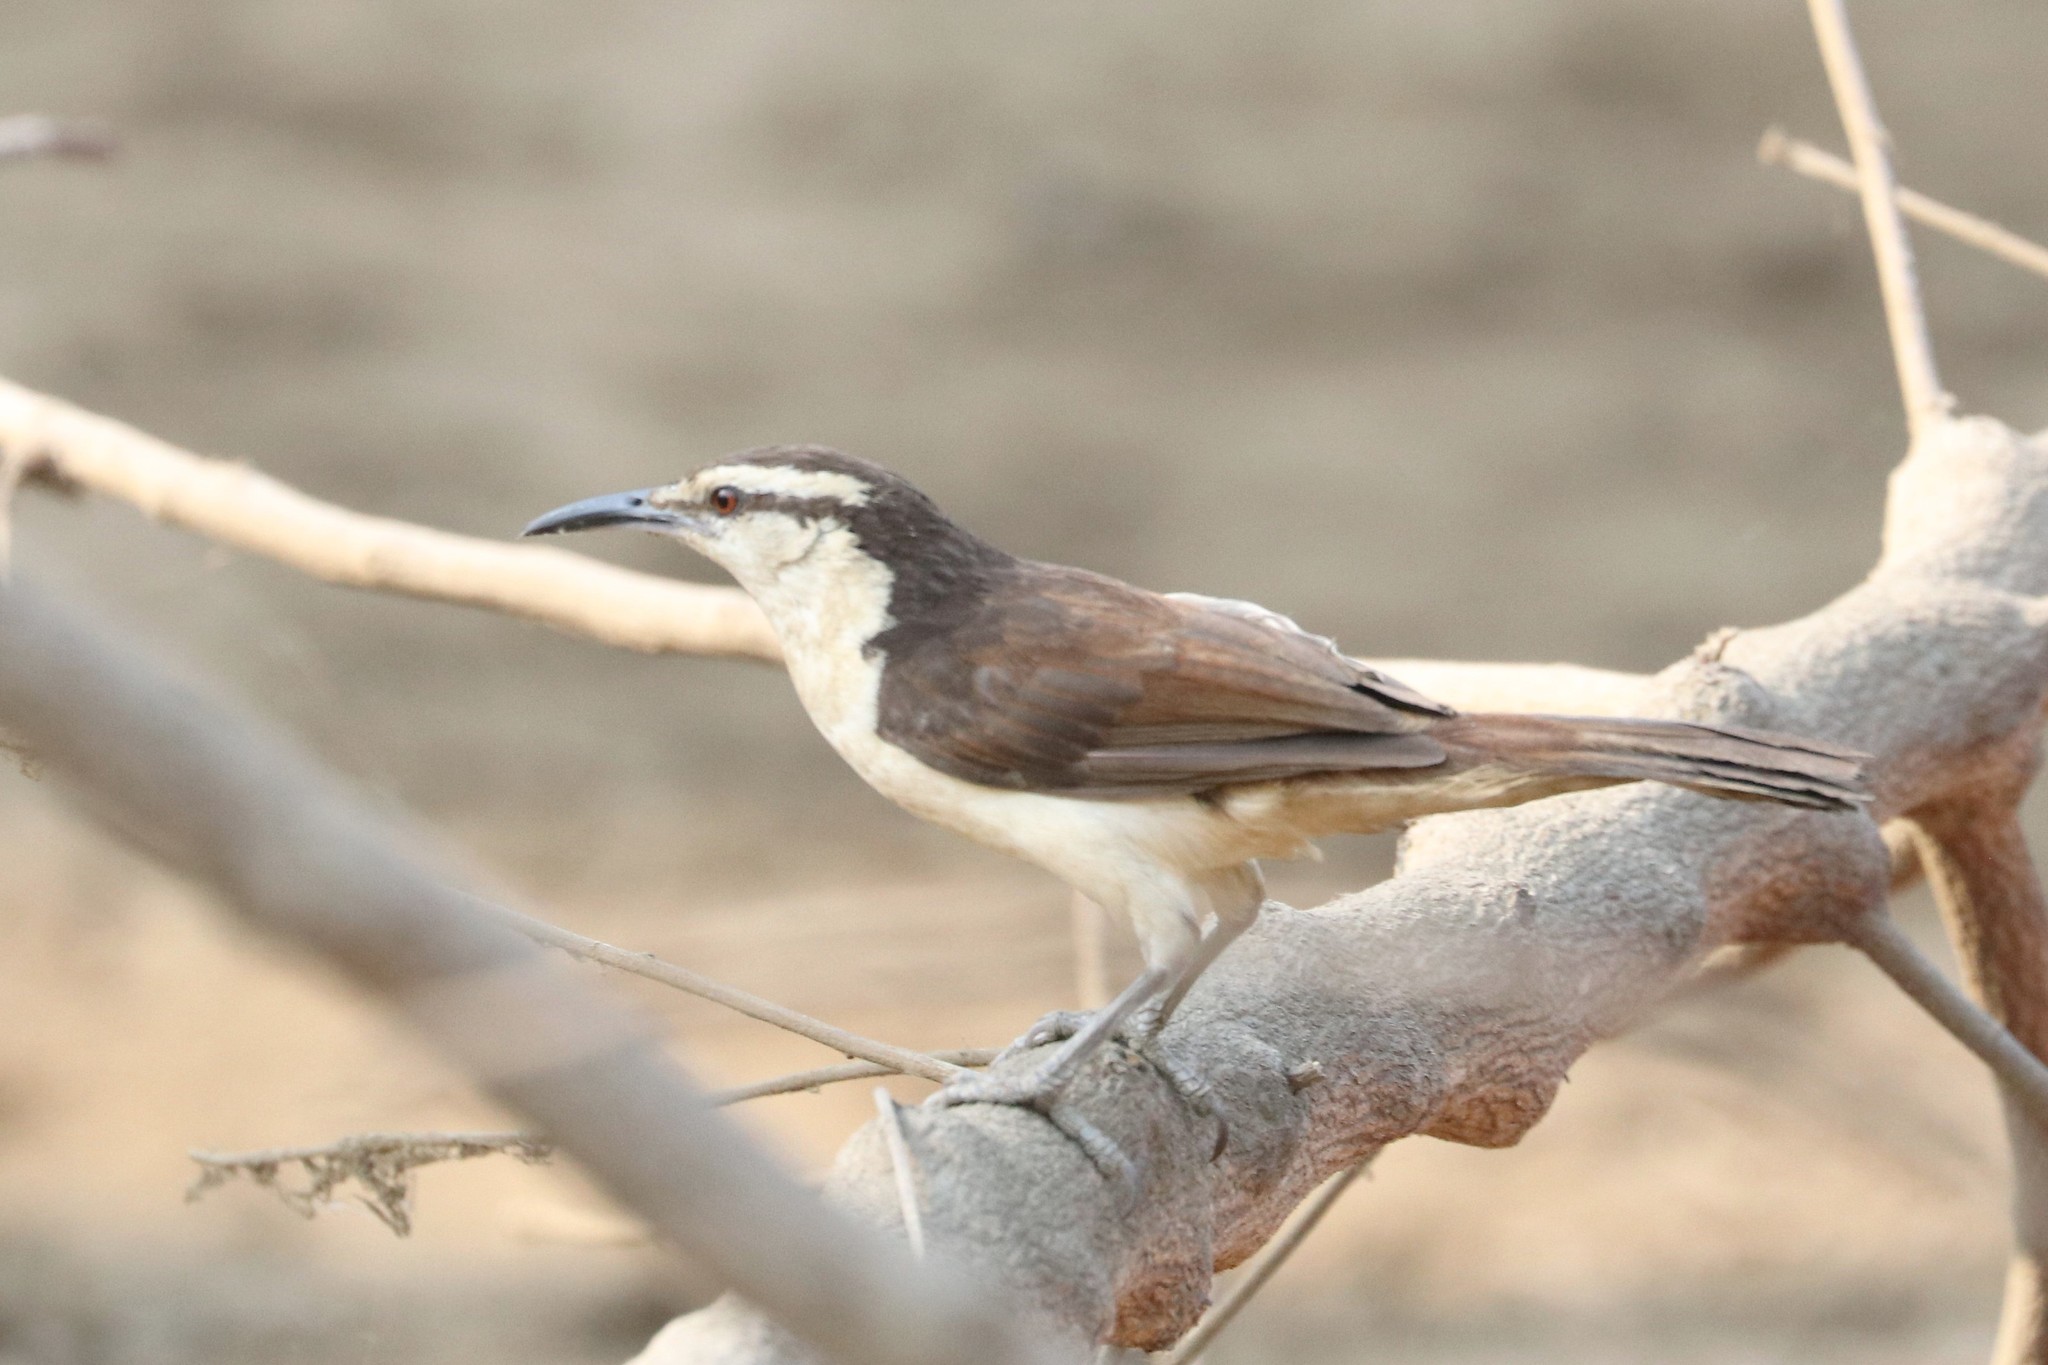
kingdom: Animalia
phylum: Chordata
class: Aves
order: Passeriformes
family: Troglodytidae
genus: Campylorhynchus
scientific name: Campylorhynchus griseus
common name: Bicolored wren
